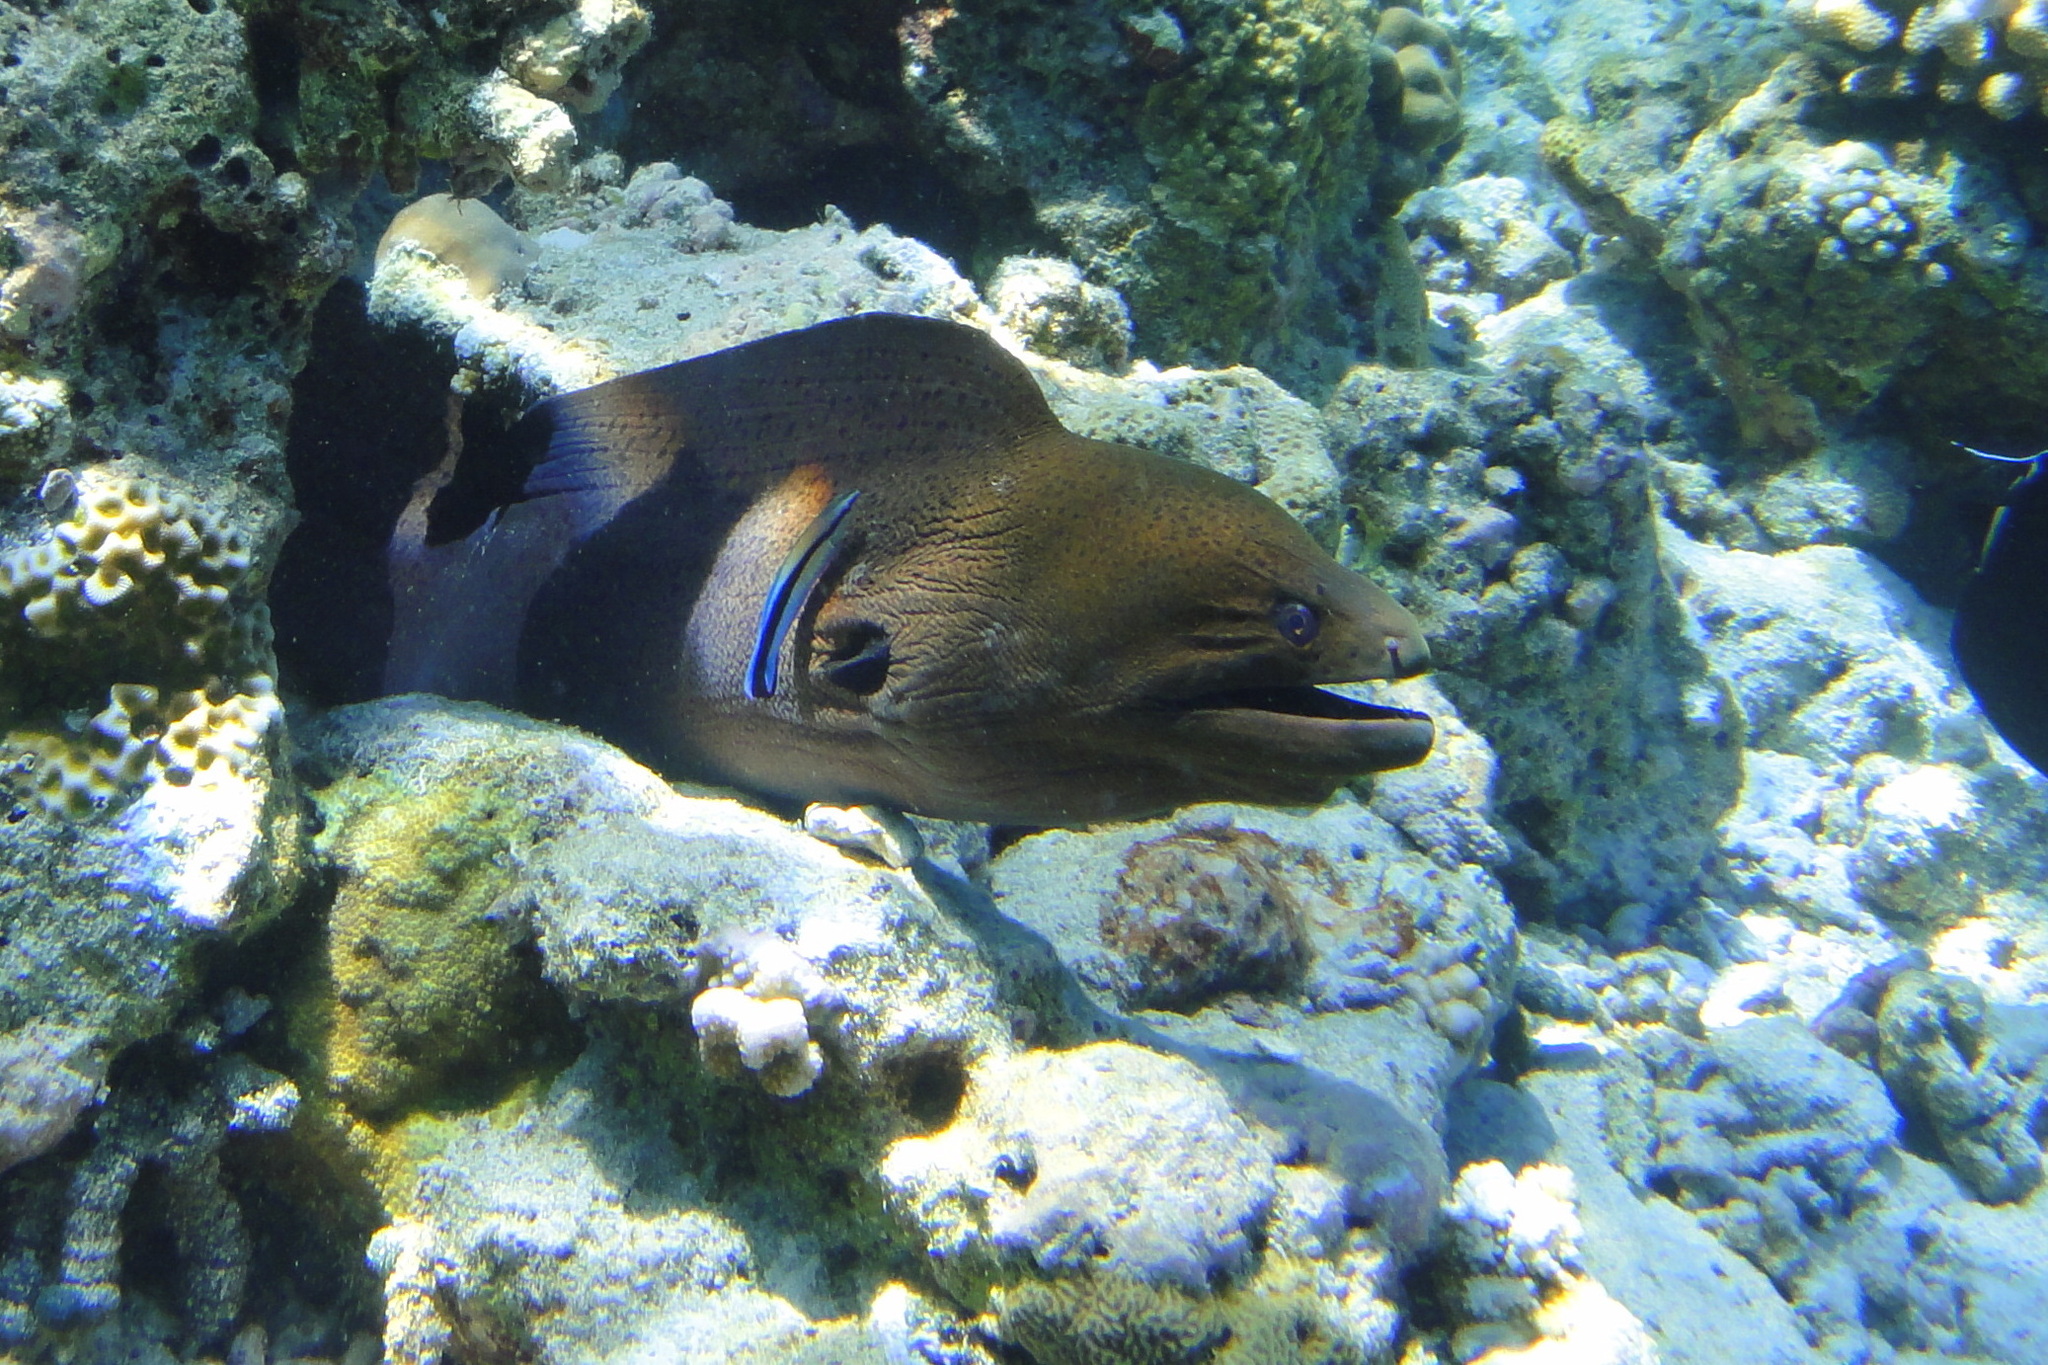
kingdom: Animalia
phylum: Chordata
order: Anguilliformes
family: Muraenidae
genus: Gymnothorax
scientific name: Gymnothorax javanicus
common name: Giant moray
